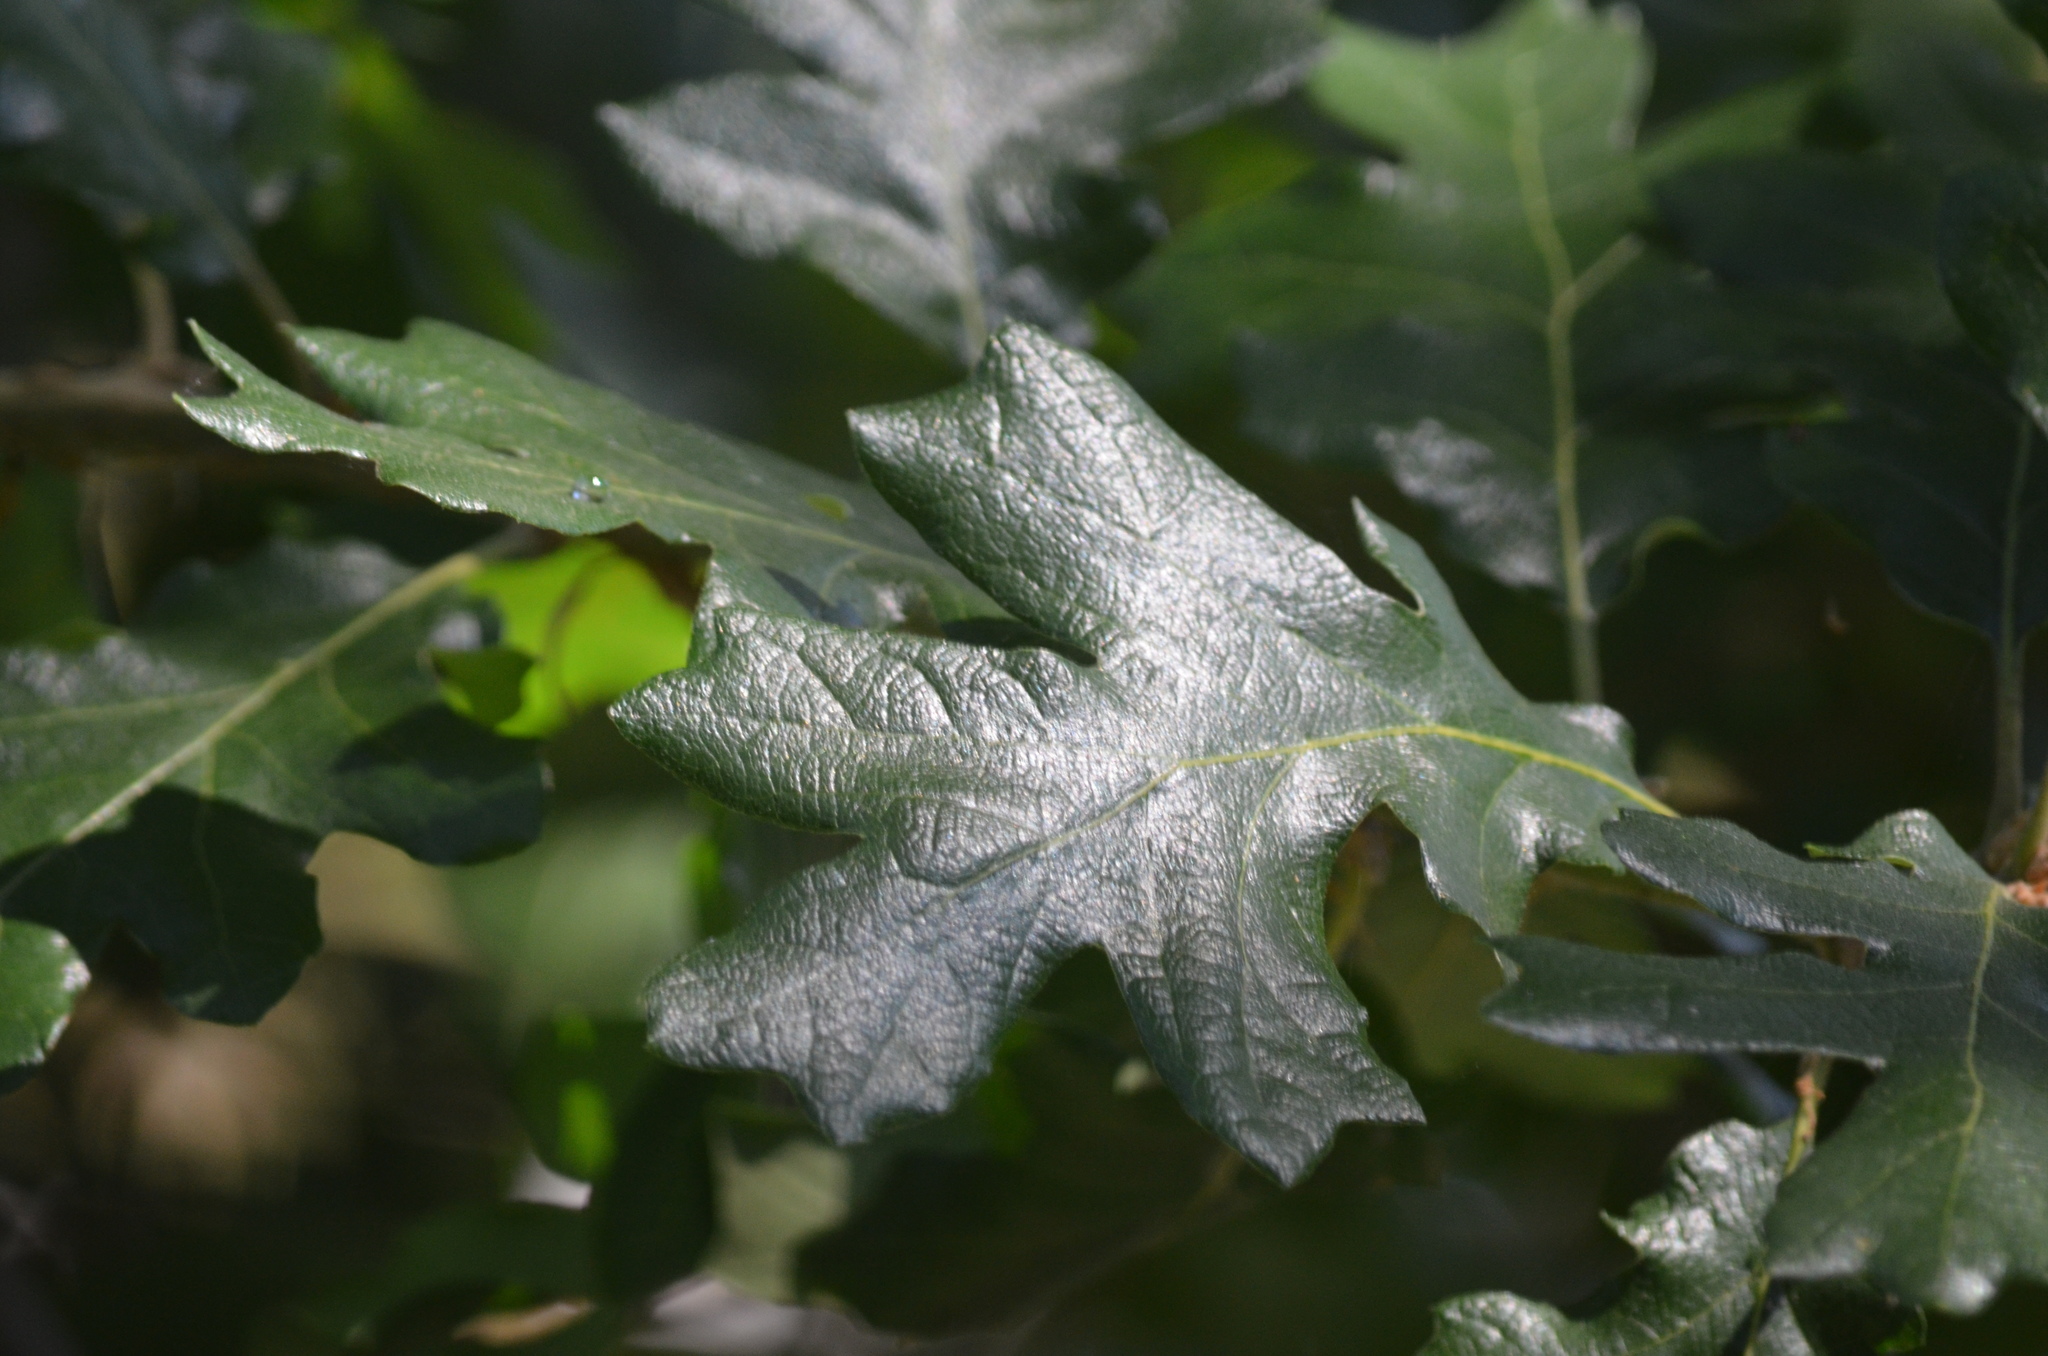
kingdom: Plantae
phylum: Tracheophyta
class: Magnoliopsida
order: Fagales
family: Fagaceae
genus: Quercus
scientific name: Quercus garryana
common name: Garry oak
